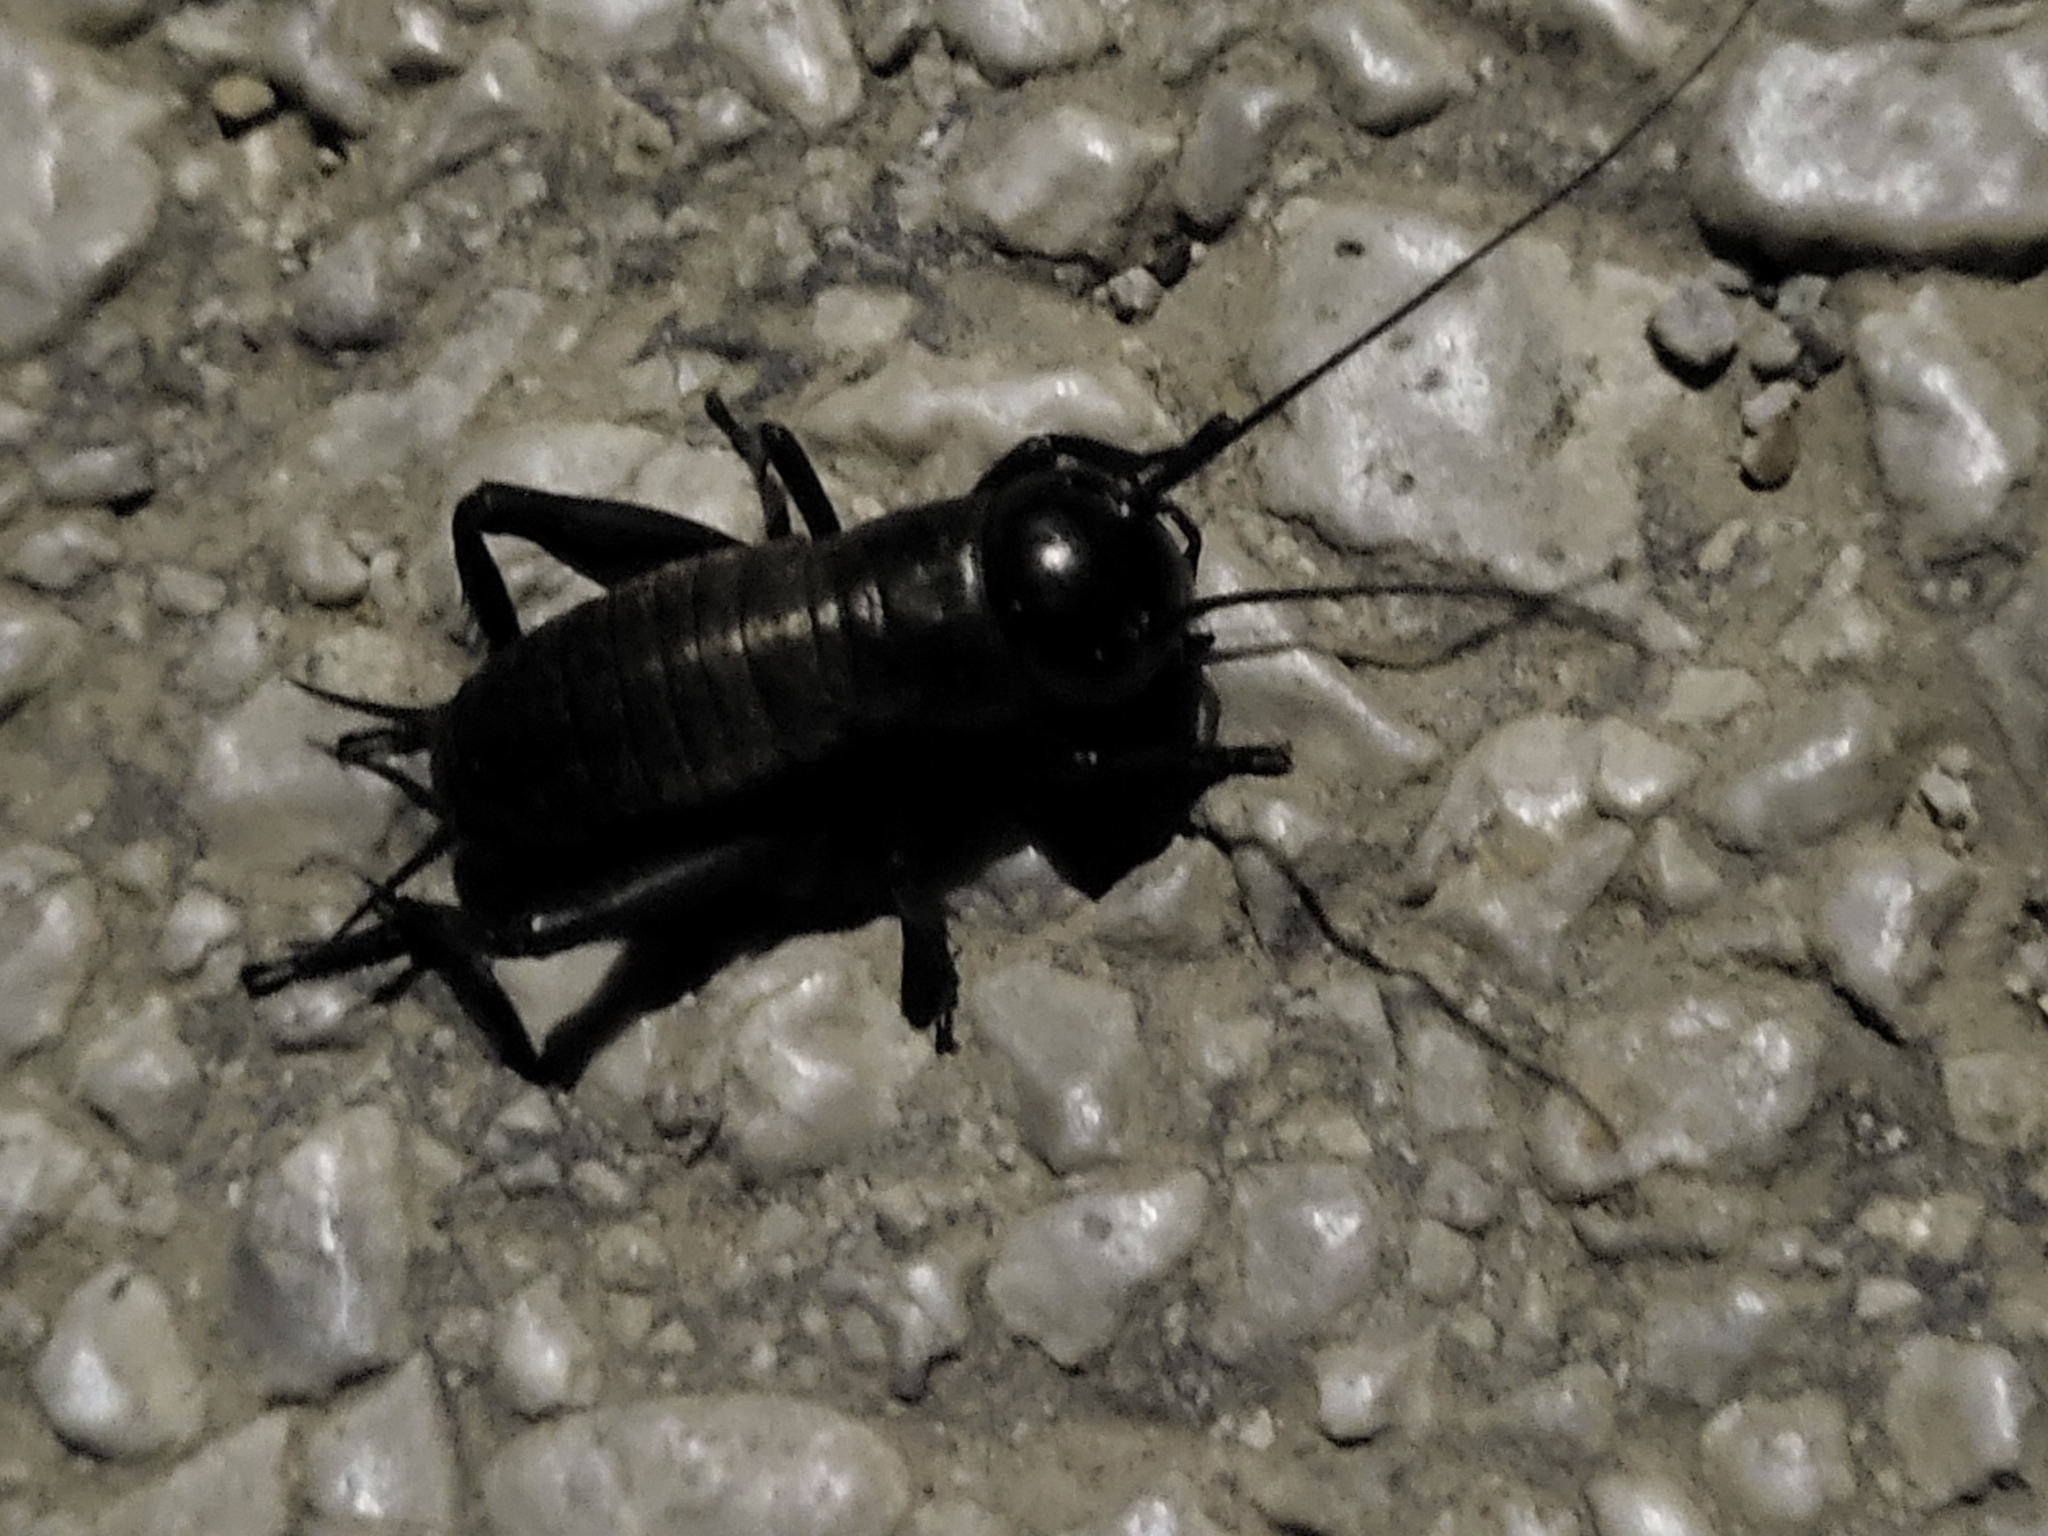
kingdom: Animalia
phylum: Arthropoda
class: Insecta
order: Orthoptera
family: Gryllidae
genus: Gryllus
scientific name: Gryllus campestris
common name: Field cricket
